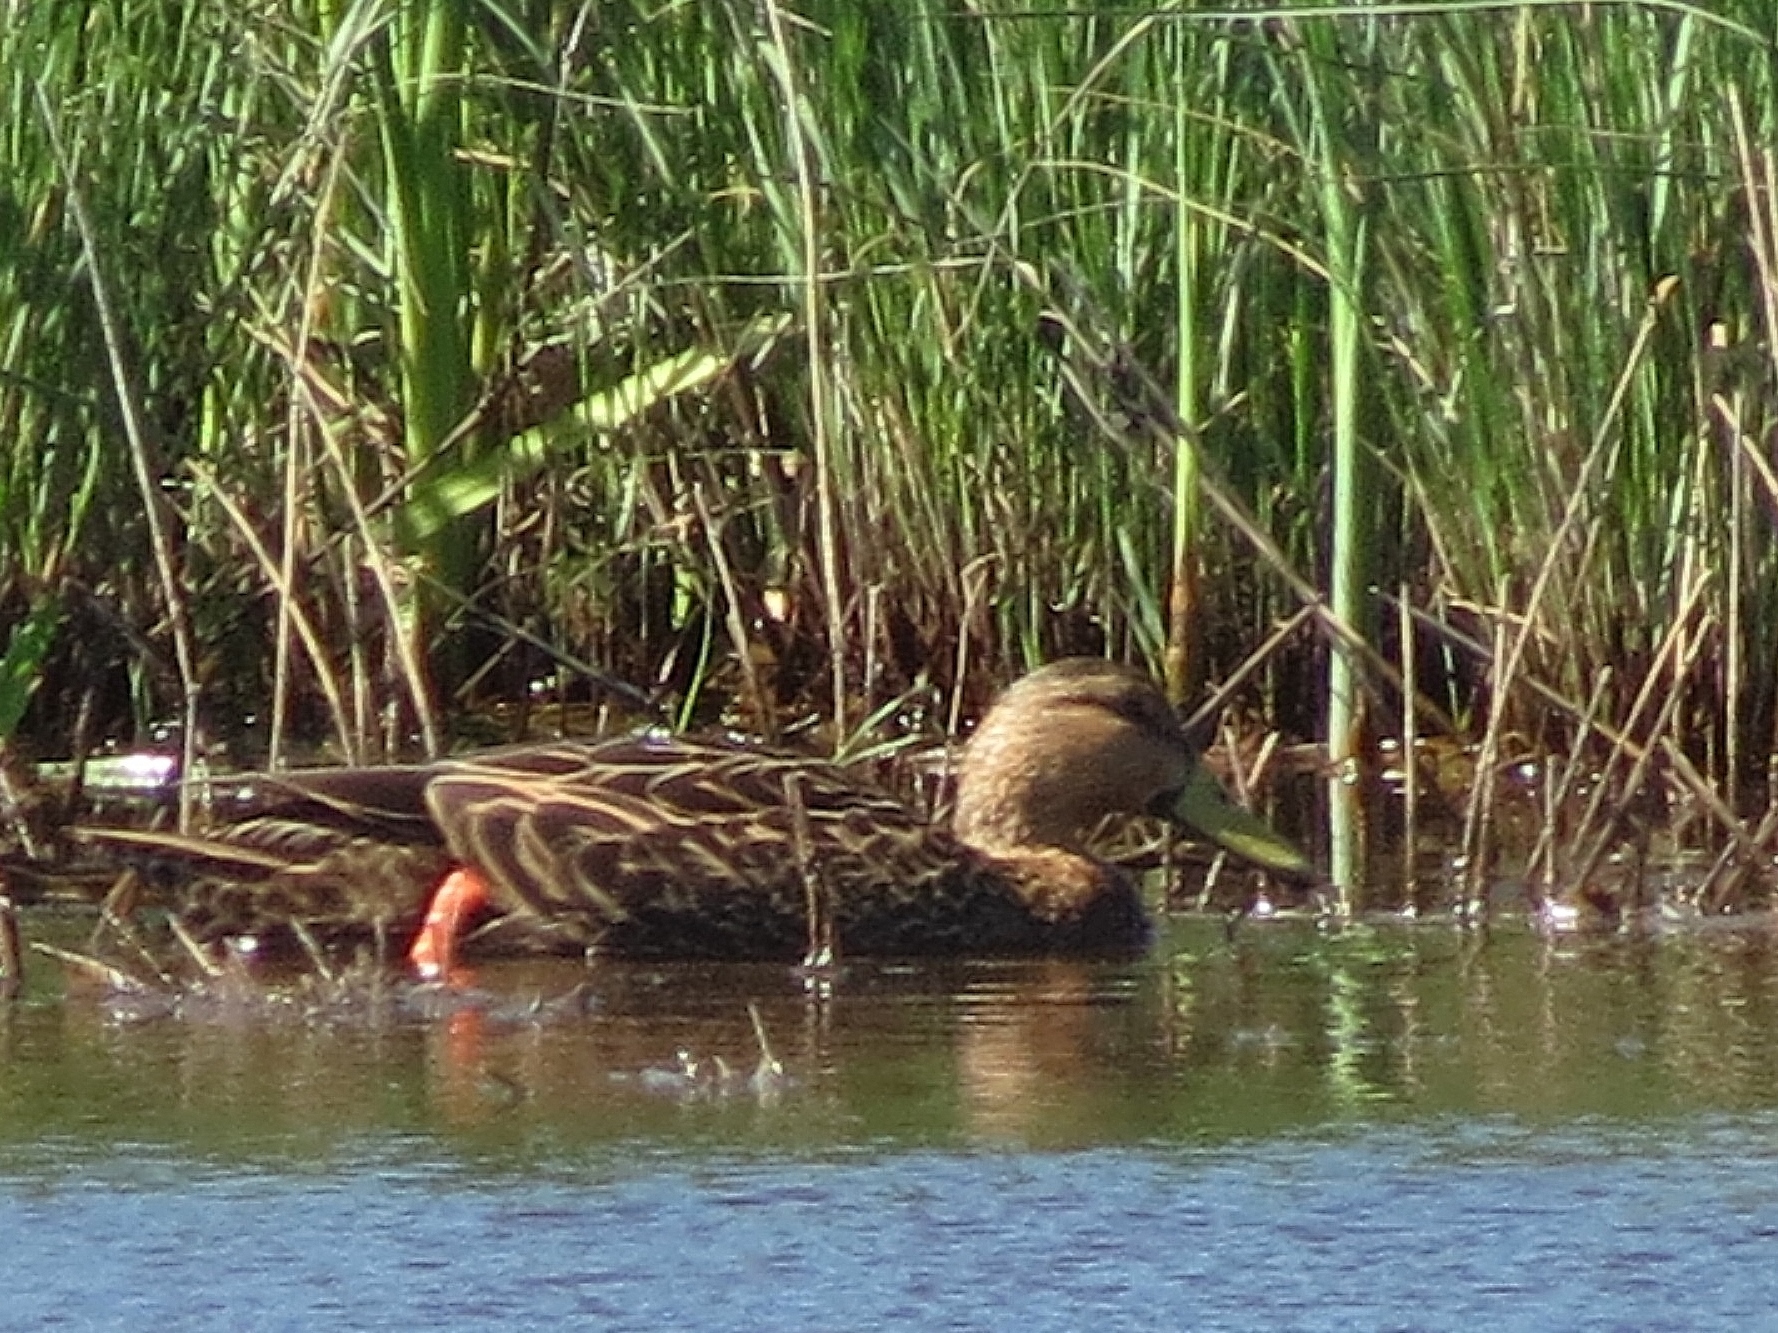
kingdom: Animalia
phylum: Chordata
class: Aves
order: Anseriformes
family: Anatidae
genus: Anas
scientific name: Anas fulvigula
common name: Mottled duck
